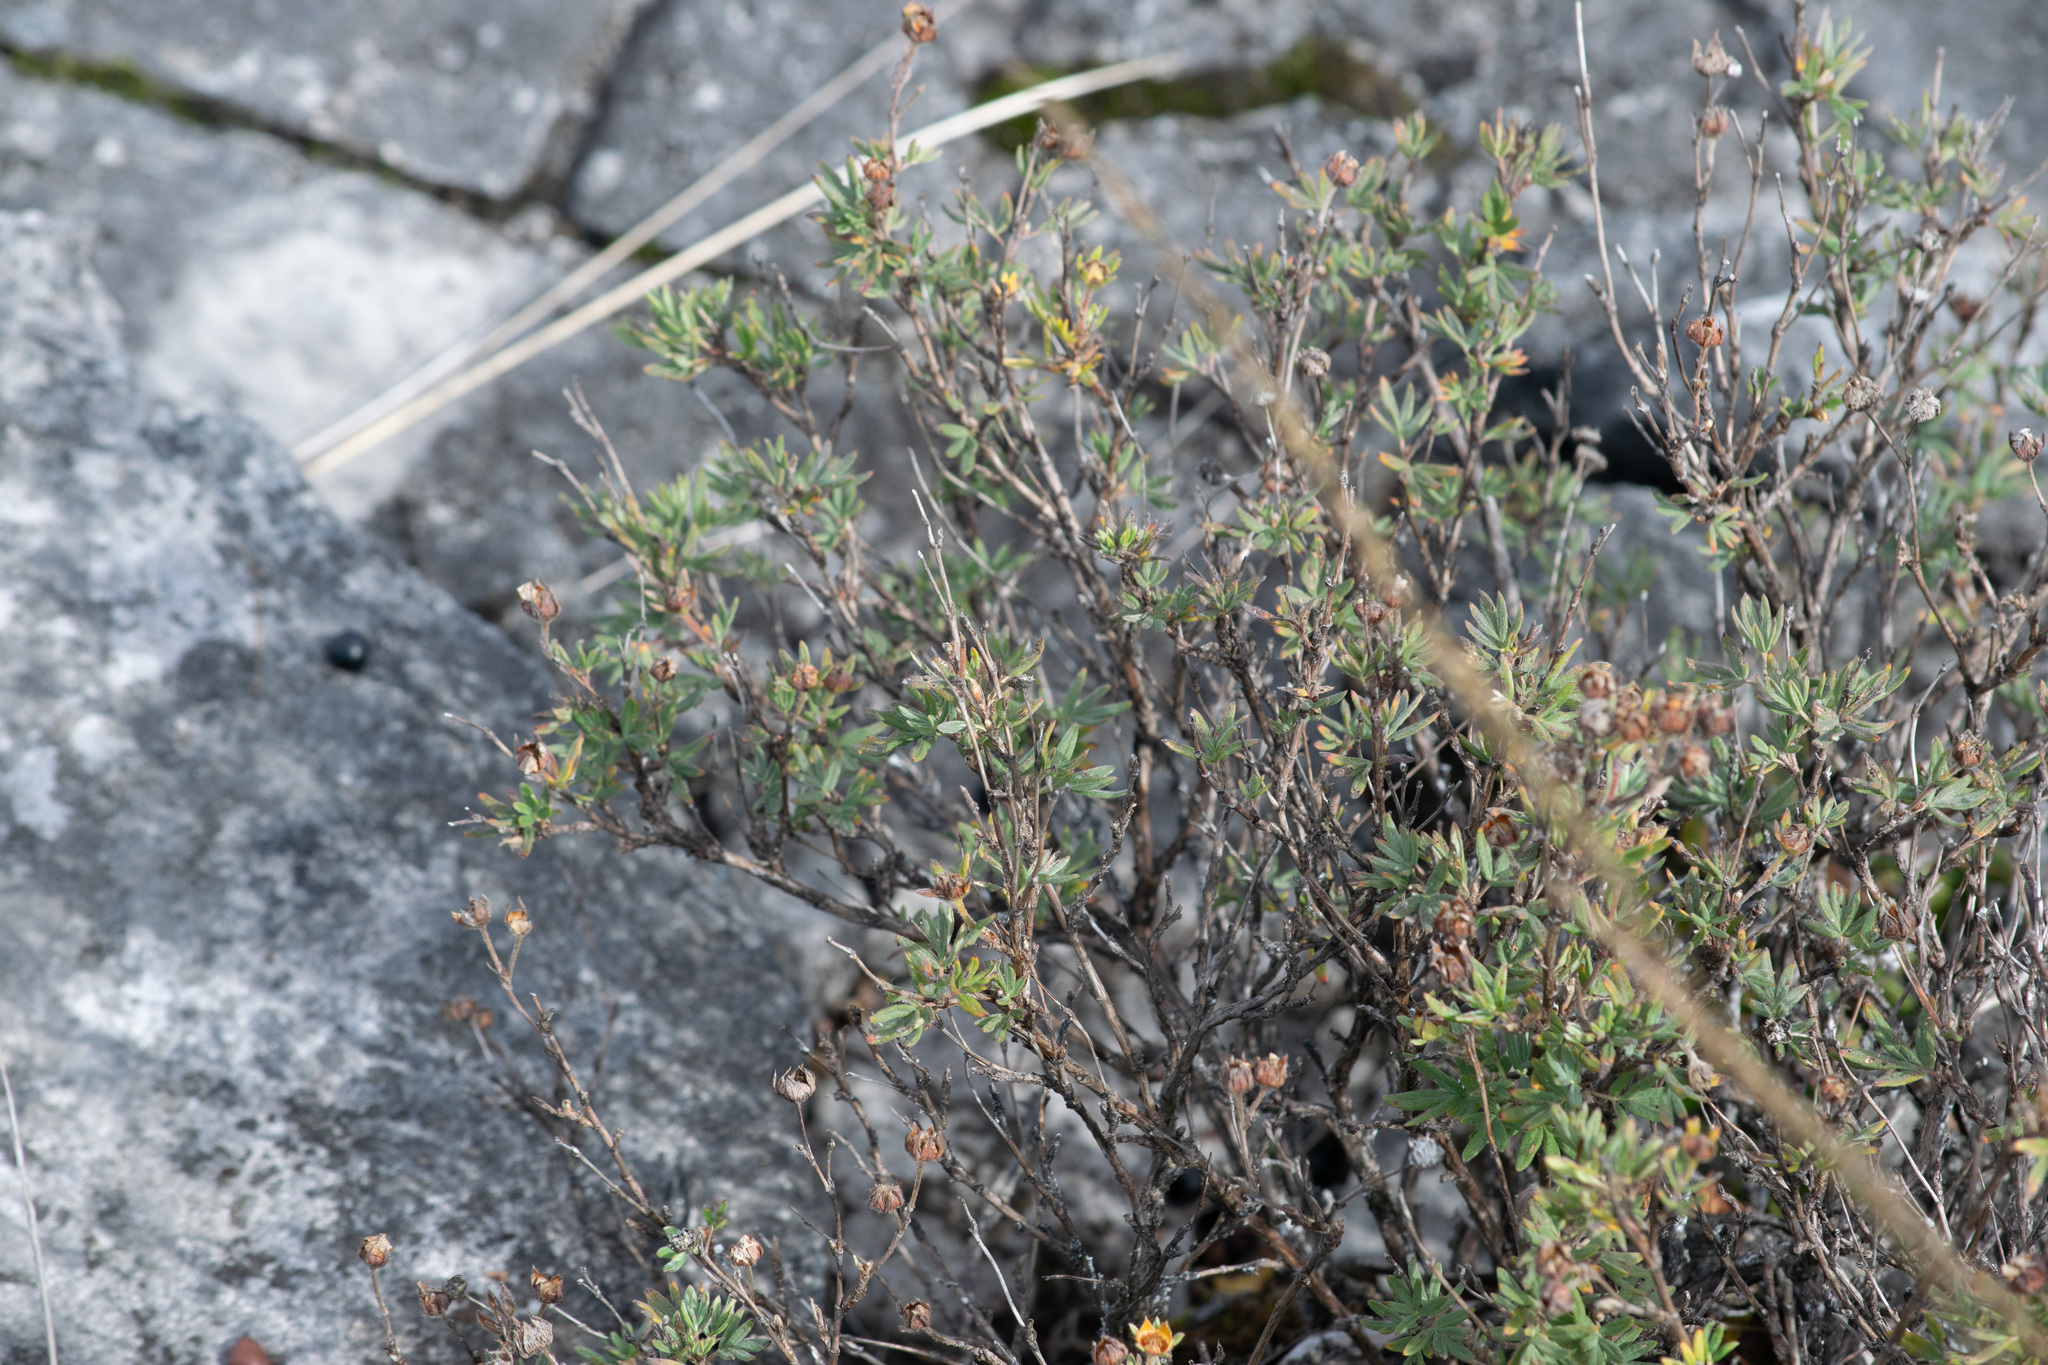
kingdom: Plantae
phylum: Tracheophyta
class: Magnoliopsida
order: Rosales
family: Rosaceae
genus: Dasiphora
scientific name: Dasiphora fruticosa
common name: Shrubby cinquefoil
